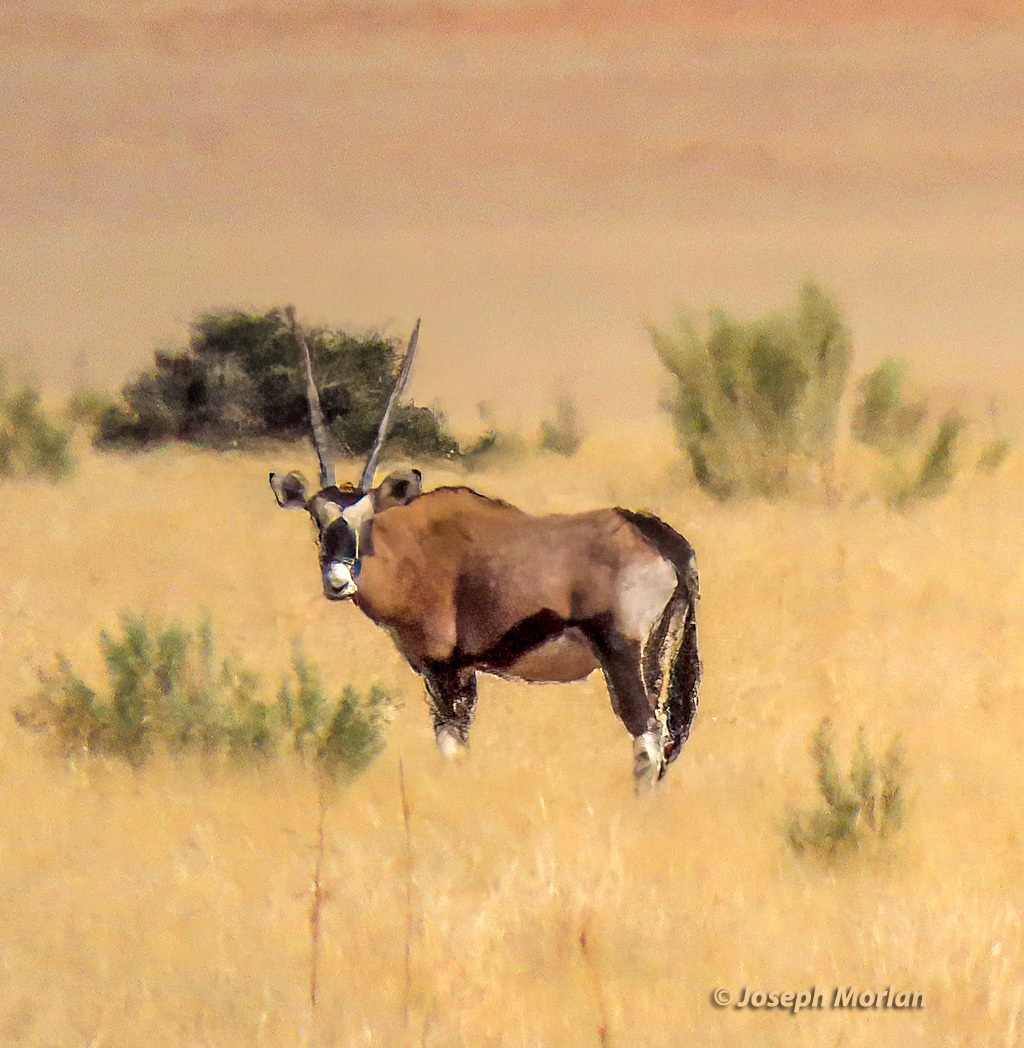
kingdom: Animalia
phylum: Chordata
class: Mammalia
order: Artiodactyla
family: Bovidae
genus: Oryx
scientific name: Oryx gazella
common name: Gemsbok
